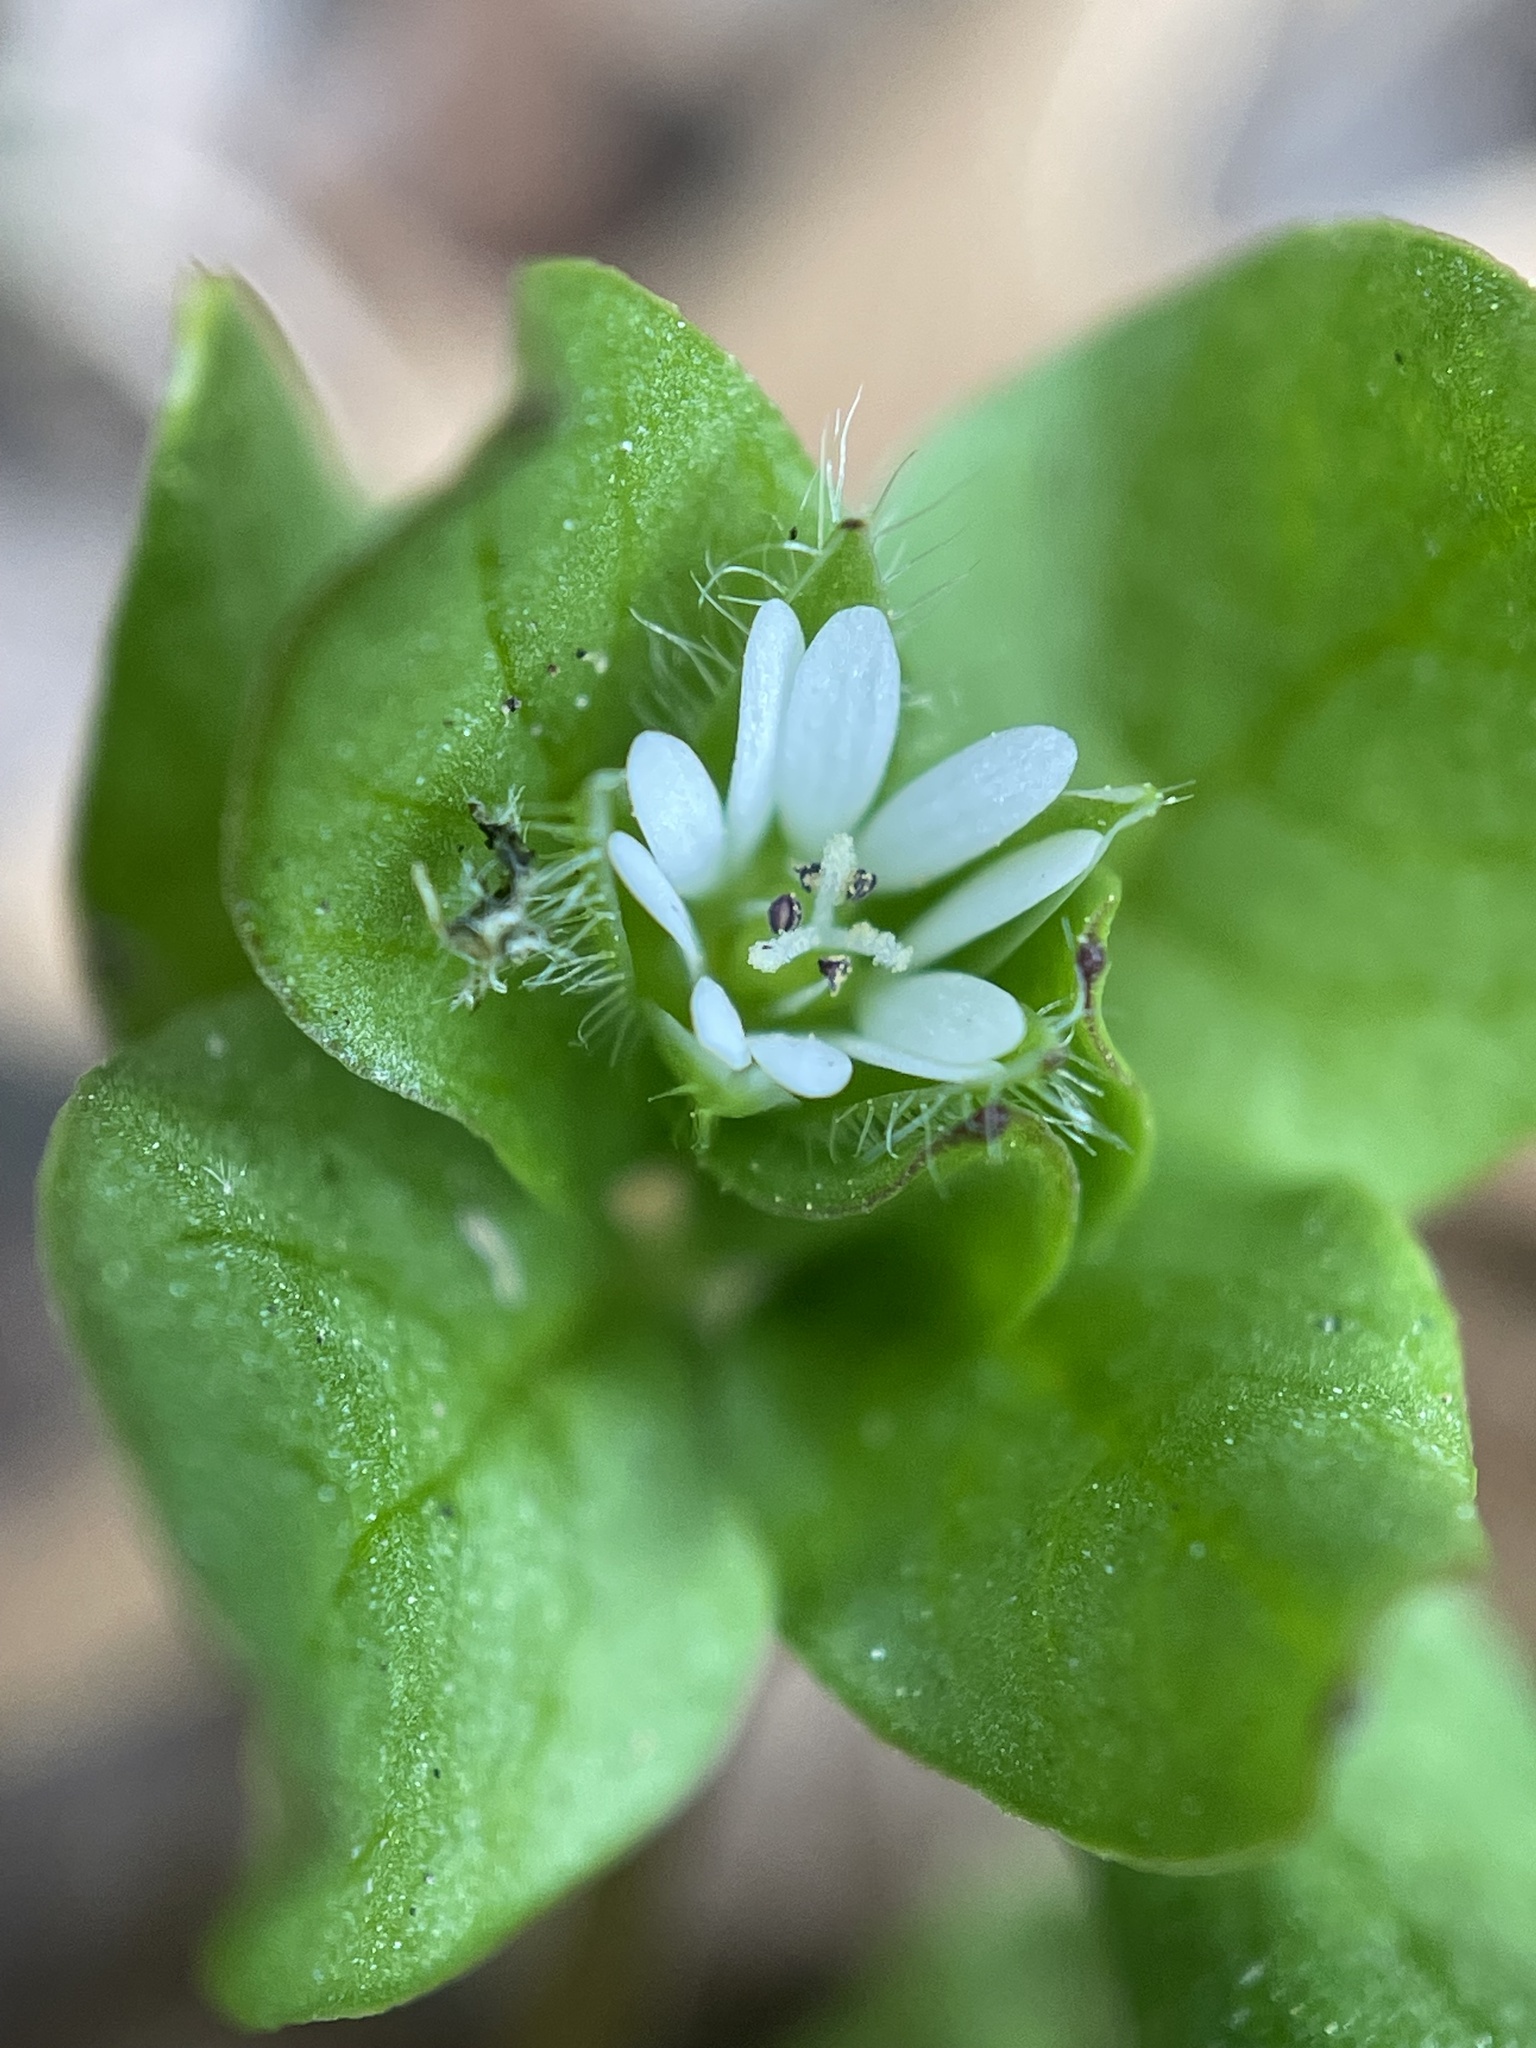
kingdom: Plantae
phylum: Tracheophyta
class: Magnoliopsida
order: Caryophyllales
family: Caryophyllaceae
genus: Stellaria
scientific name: Stellaria media
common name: Common chickweed
